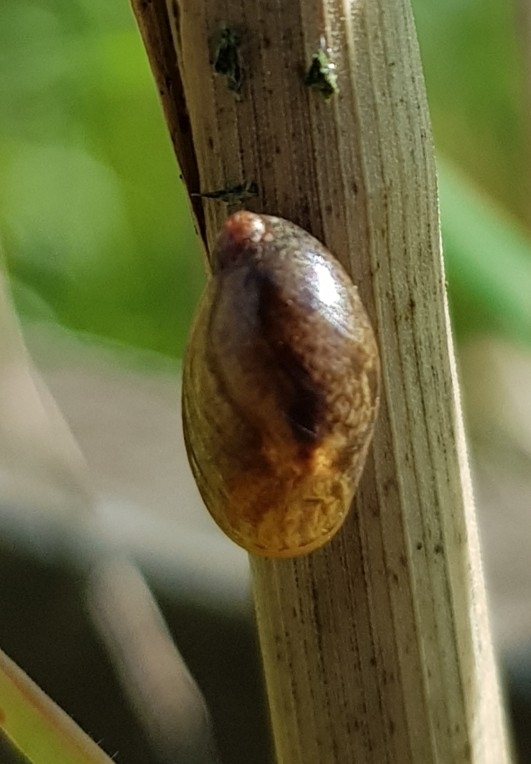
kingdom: Animalia
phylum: Mollusca
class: Gastropoda
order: Stylommatophora
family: Succineidae
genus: Succinea
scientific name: Succinea putris
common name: European ambersnail
